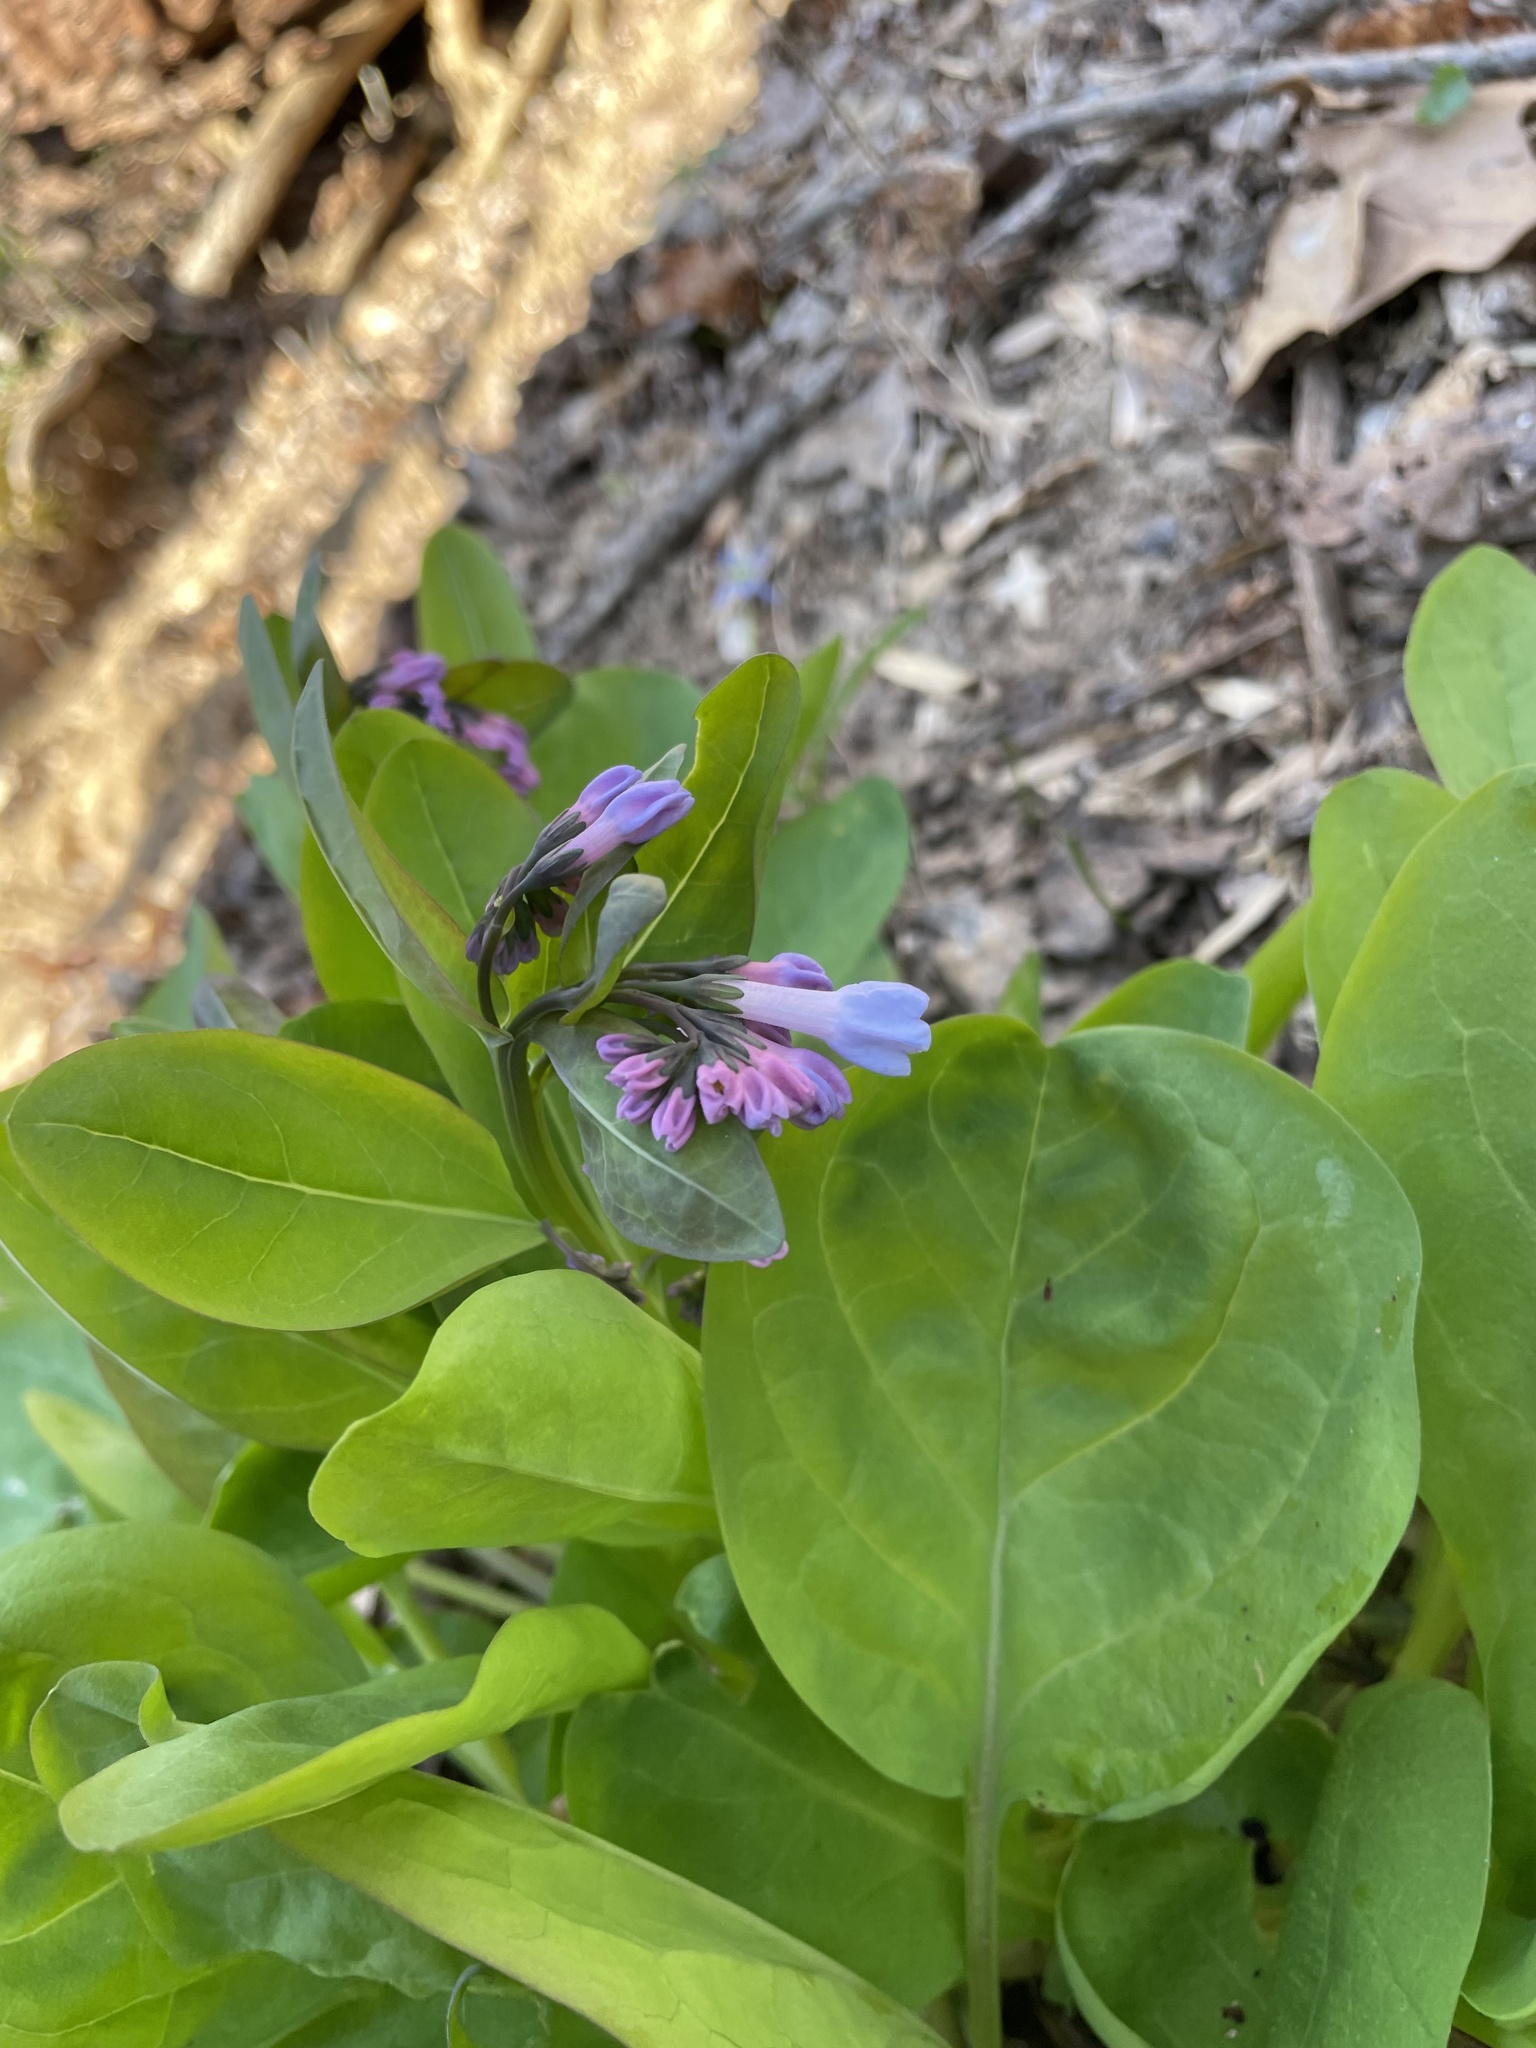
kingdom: Plantae
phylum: Tracheophyta
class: Magnoliopsida
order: Boraginales
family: Boraginaceae
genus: Mertensia
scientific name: Mertensia virginica
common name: Virginia bluebells
